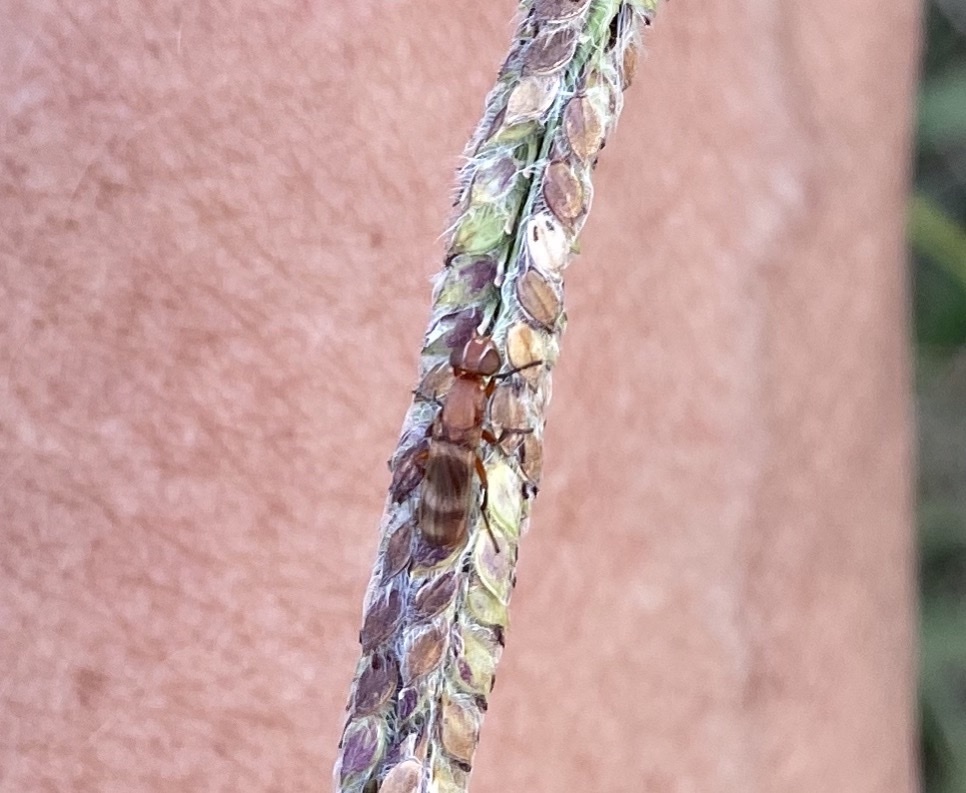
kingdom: Animalia
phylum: Arthropoda
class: Insecta
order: Diptera
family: Ulidiidae
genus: Zacompsia
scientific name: Zacompsia fulva
